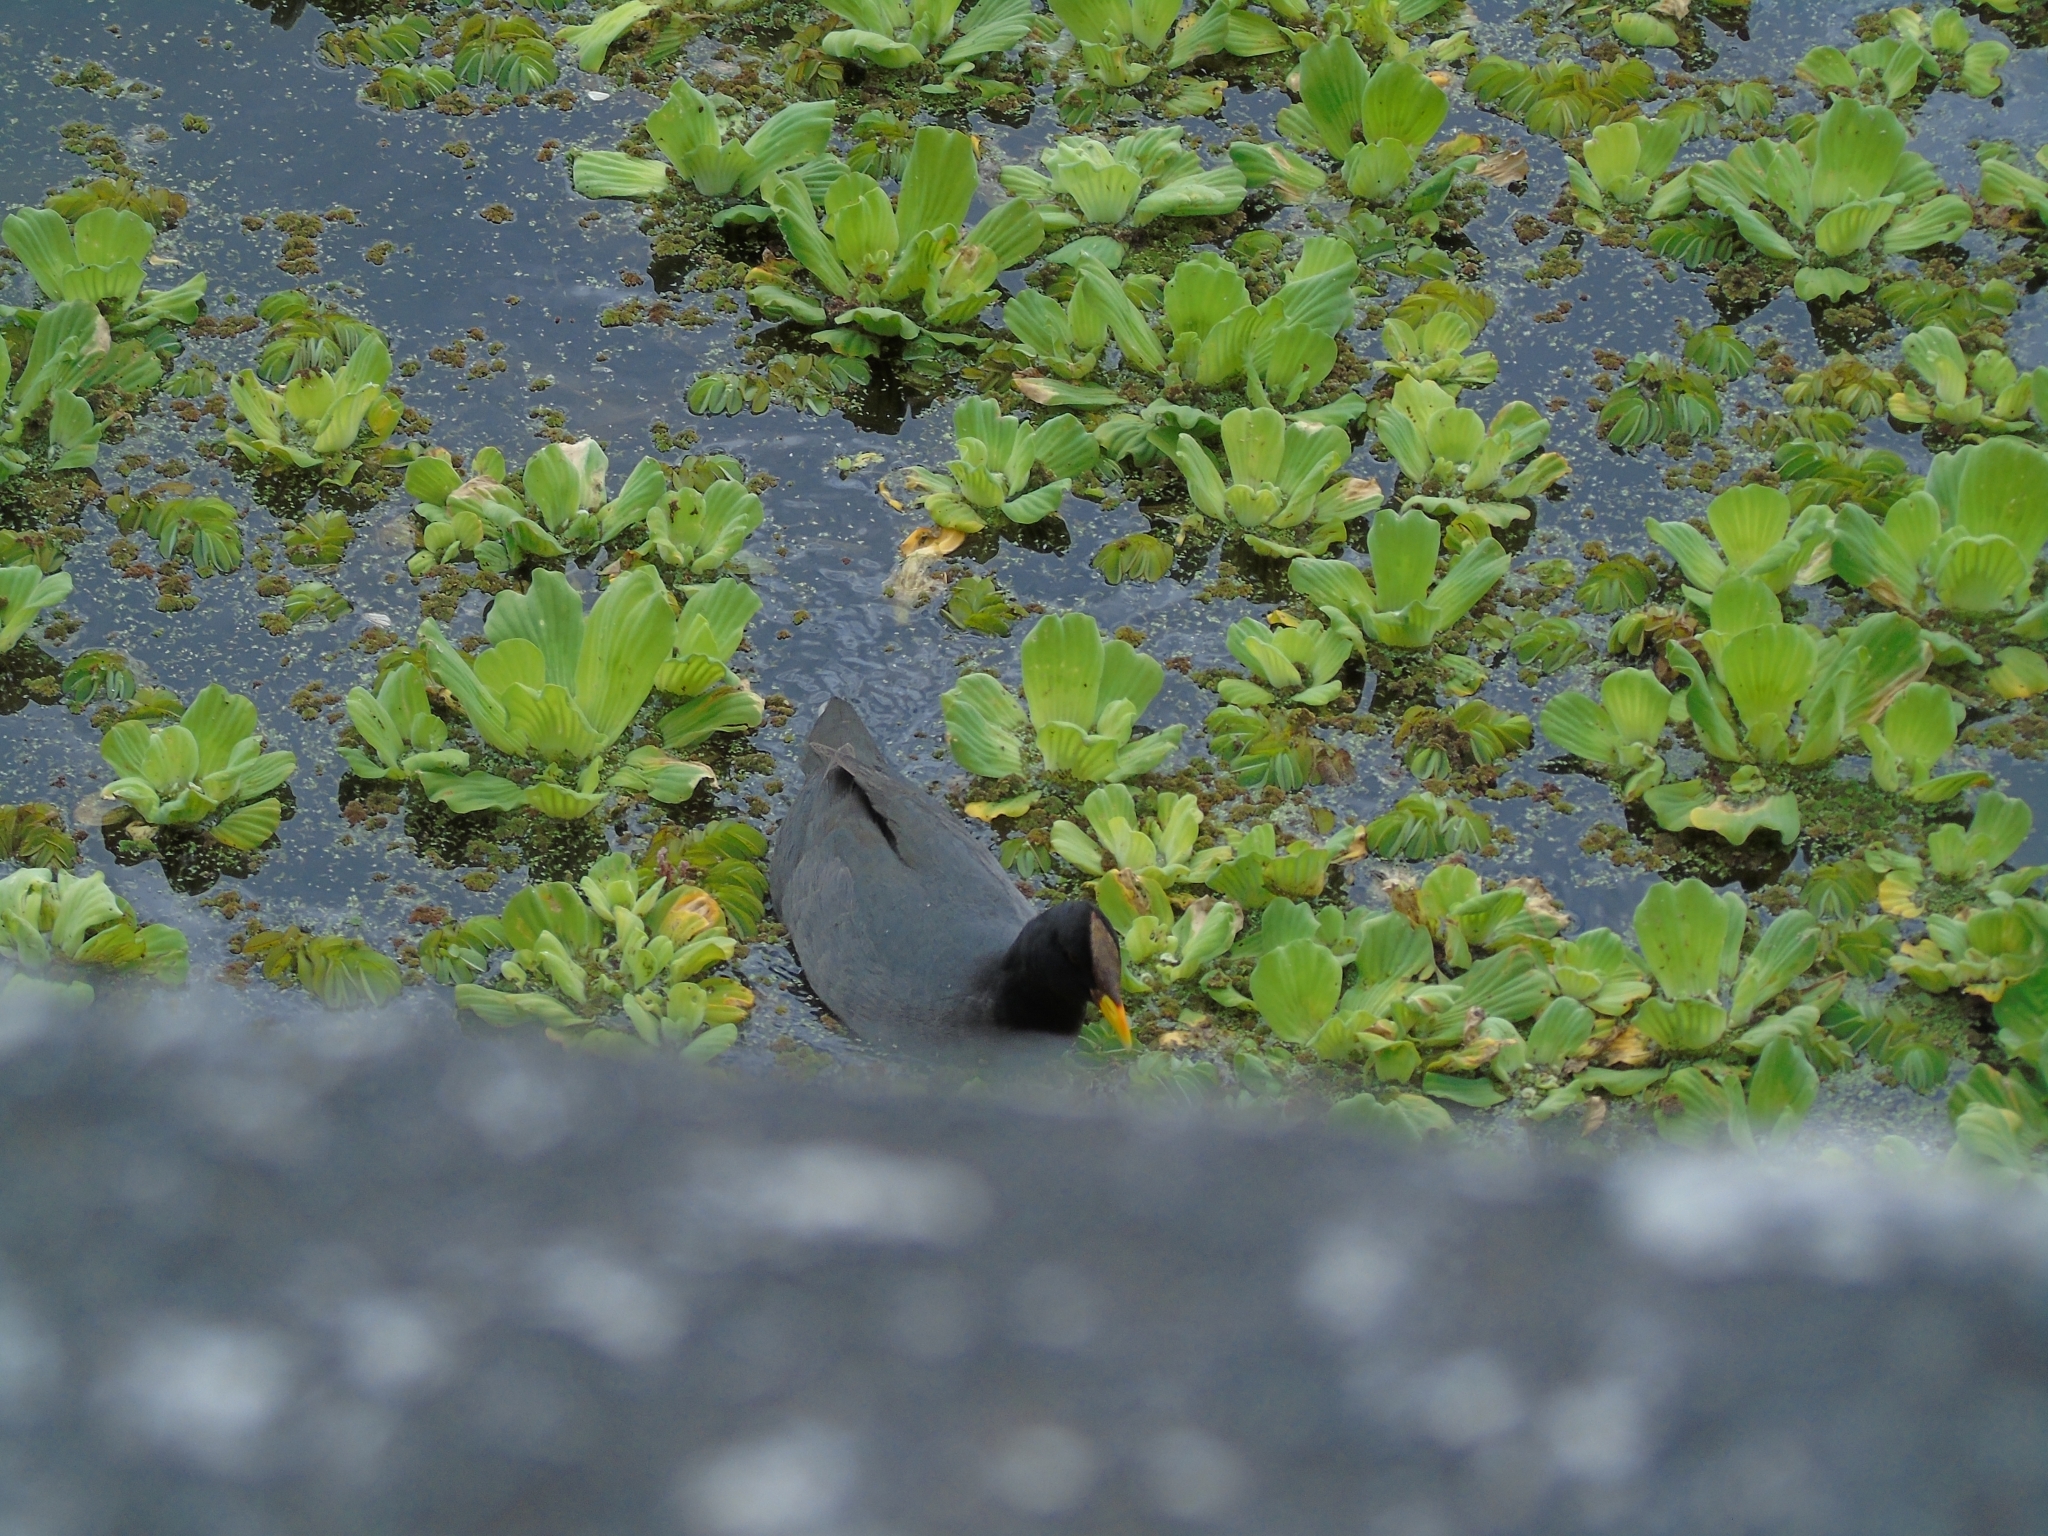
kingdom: Animalia
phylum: Chordata
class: Aves
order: Gruiformes
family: Rallidae
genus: Fulica
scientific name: Fulica rufifrons
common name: Red-fronted coot
